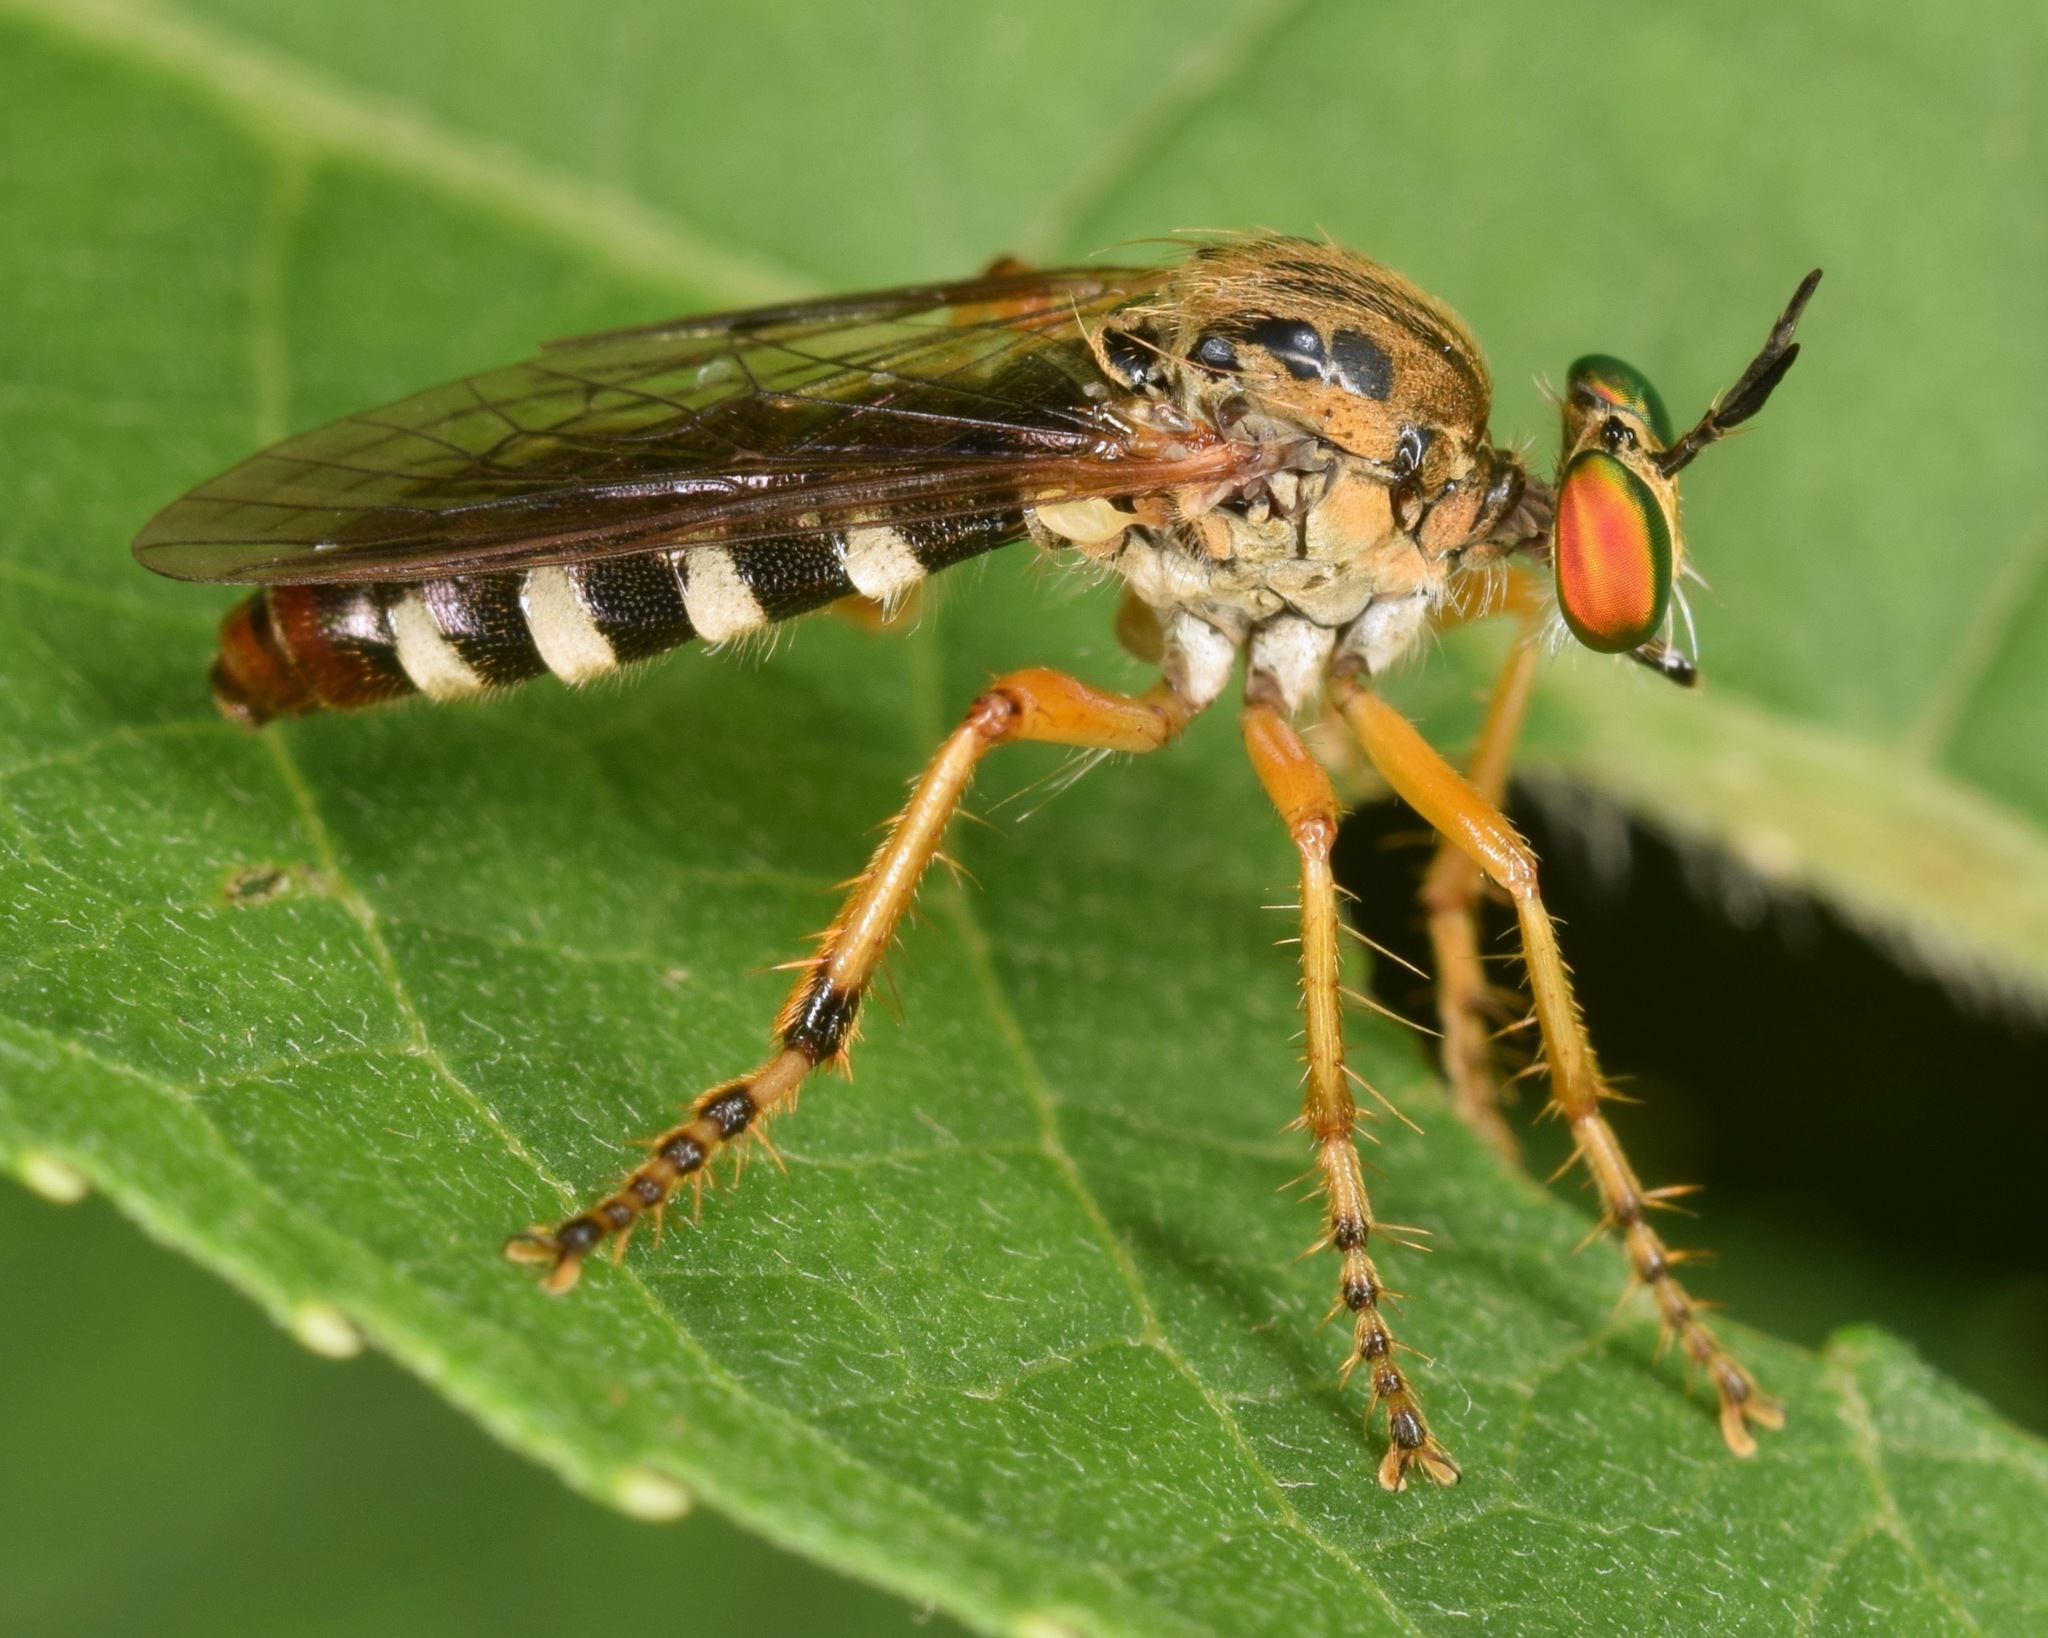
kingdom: Animalia
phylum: Arthropoda
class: Insecta
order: Diptera
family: Asilidae
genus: Taracticus
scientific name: Taracticus octopunctatus
